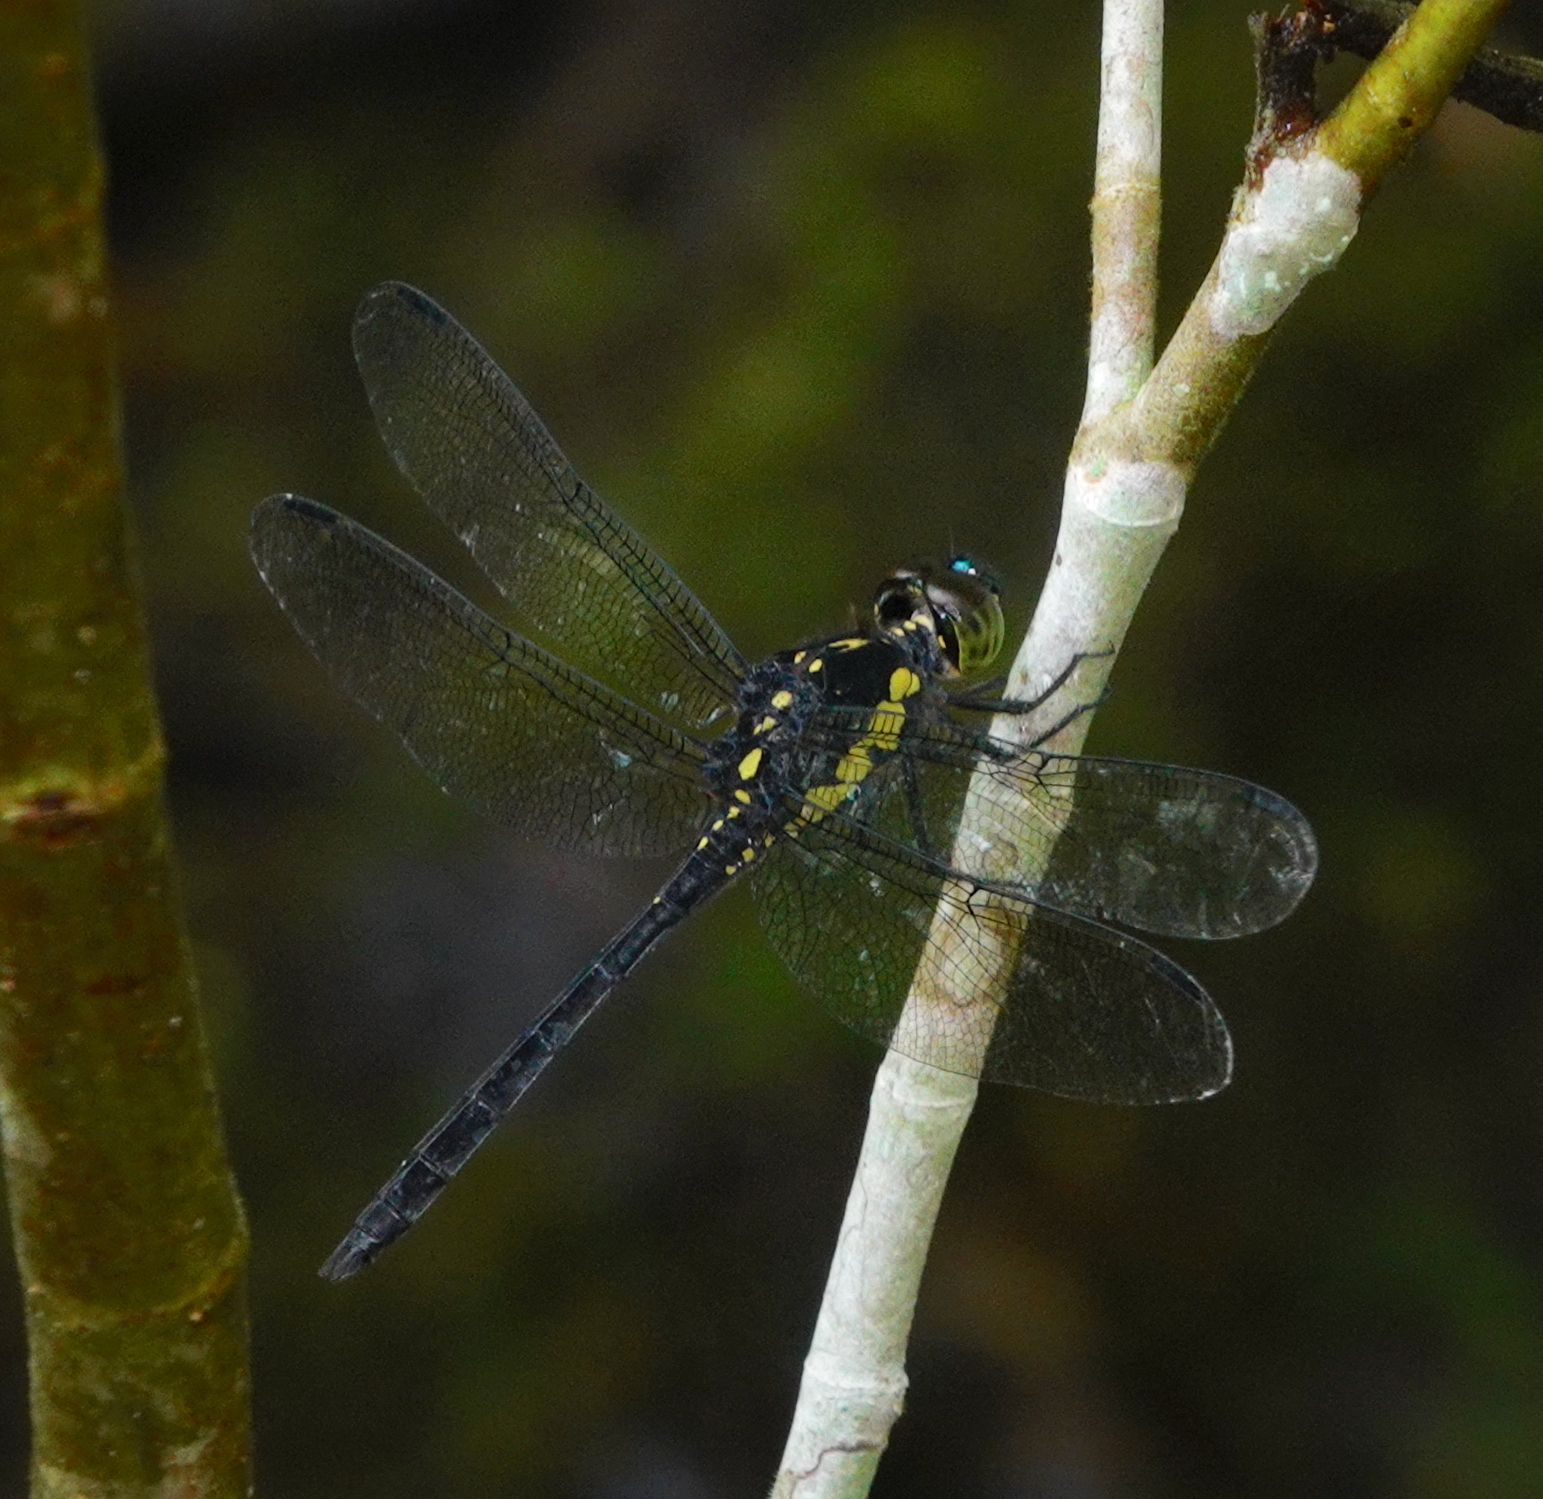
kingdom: Animalia
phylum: Arthropoda
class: Insecta
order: Odonata
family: Libellulidae
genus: Agrionoptera
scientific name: Agrionoptera longitudinalis
